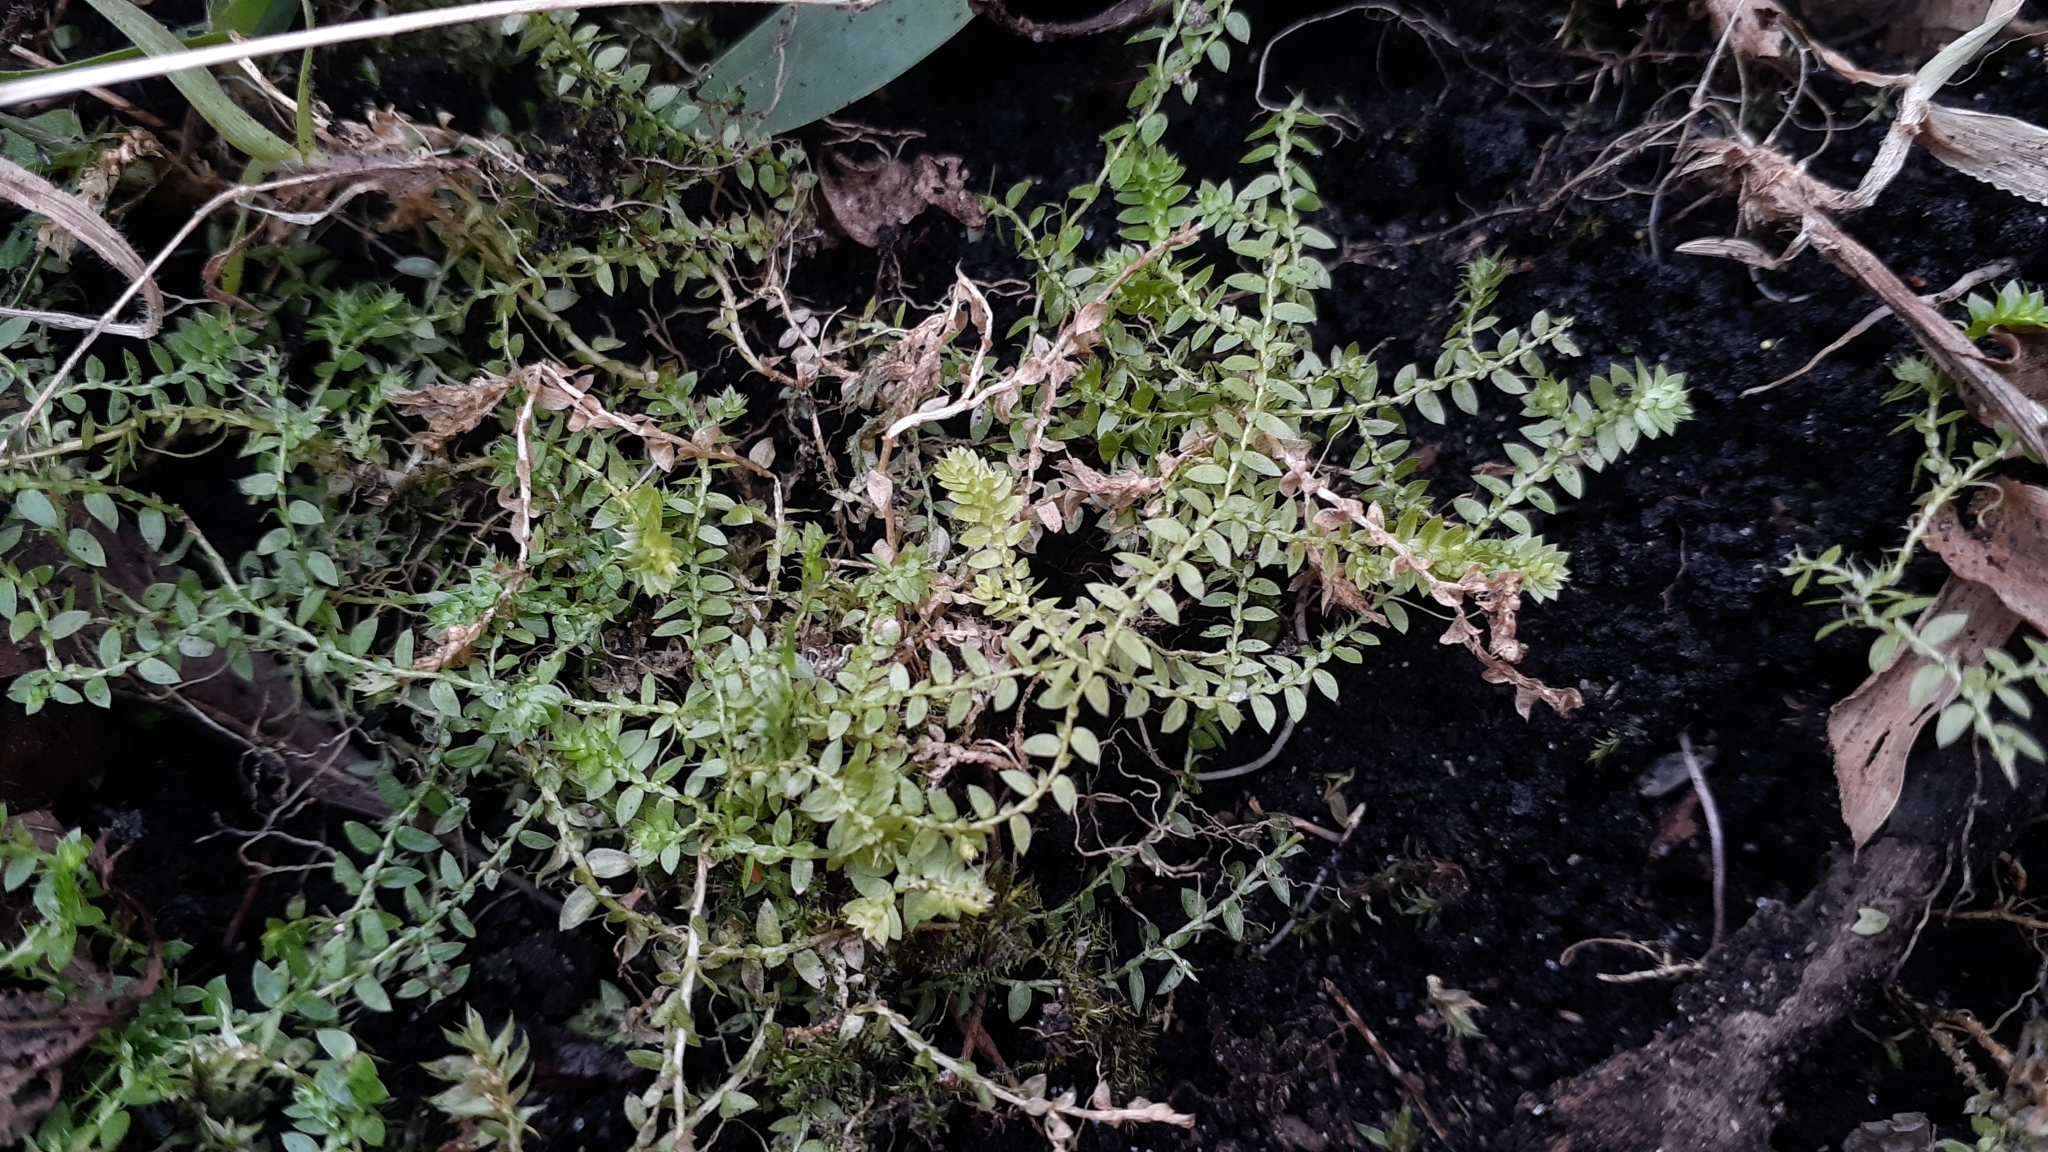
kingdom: Plantae
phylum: Tracheophyta
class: Lycopodiopsida
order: Selaginellales
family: Selaginellaceae
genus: Selaginella
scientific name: Selaginella eclipes
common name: Buck's meadow spikemoss
